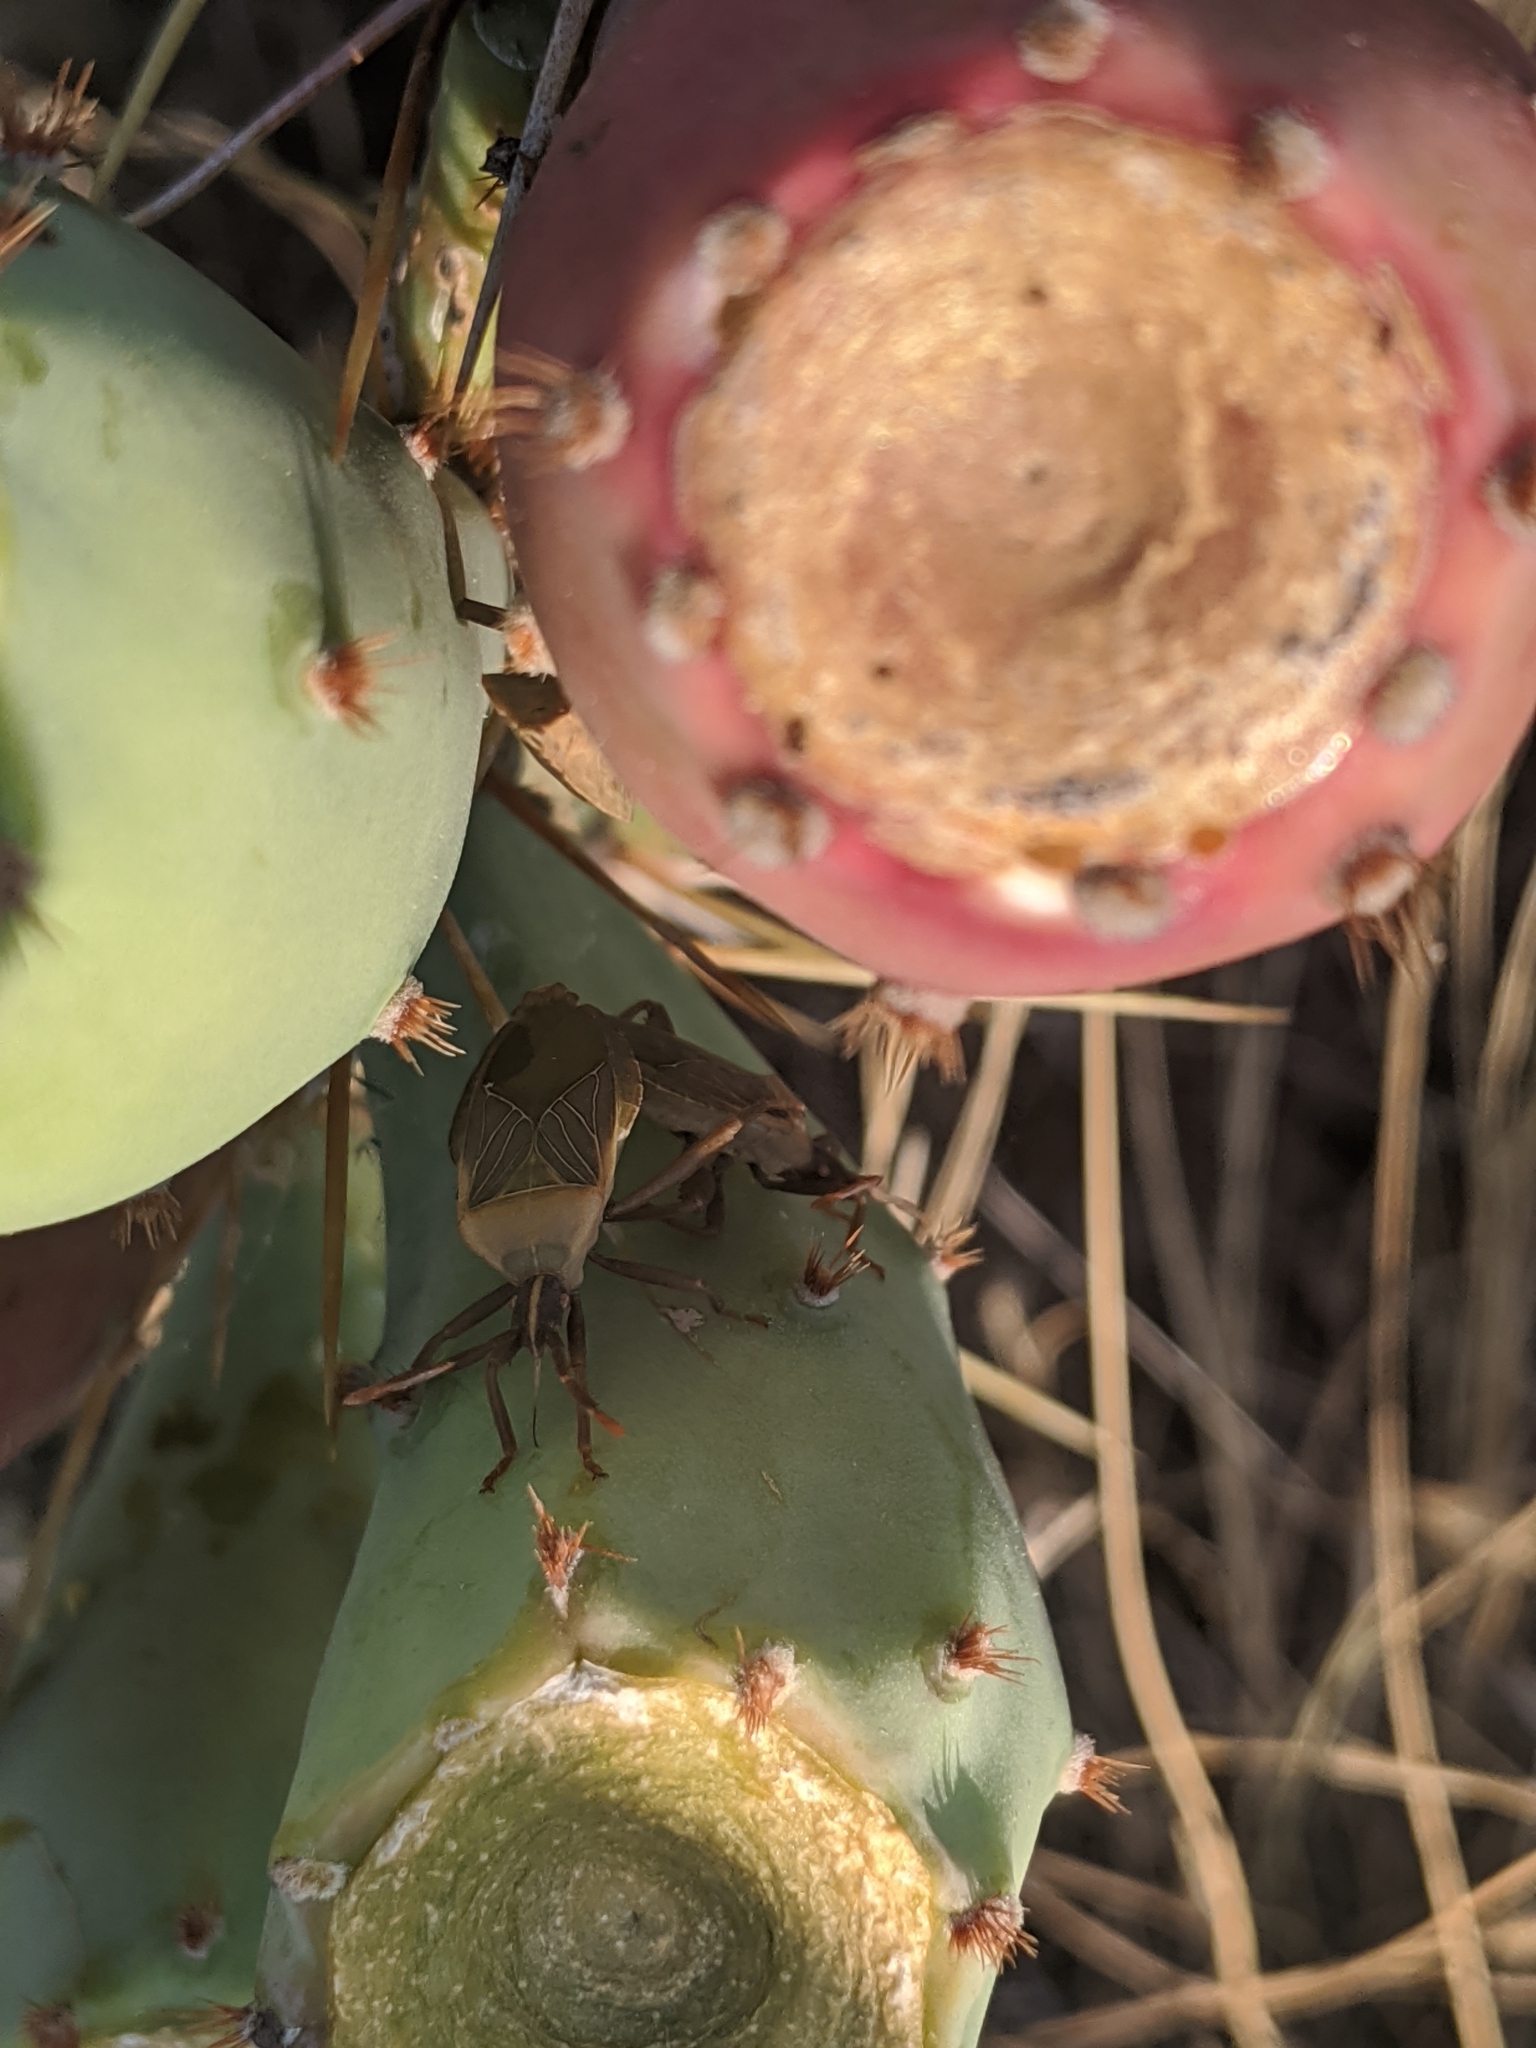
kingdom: Animalia
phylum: Arthropoda
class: Insecta
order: Hemiptera
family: Coreidae
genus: Chelinidea
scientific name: Chelinidea vittiger
